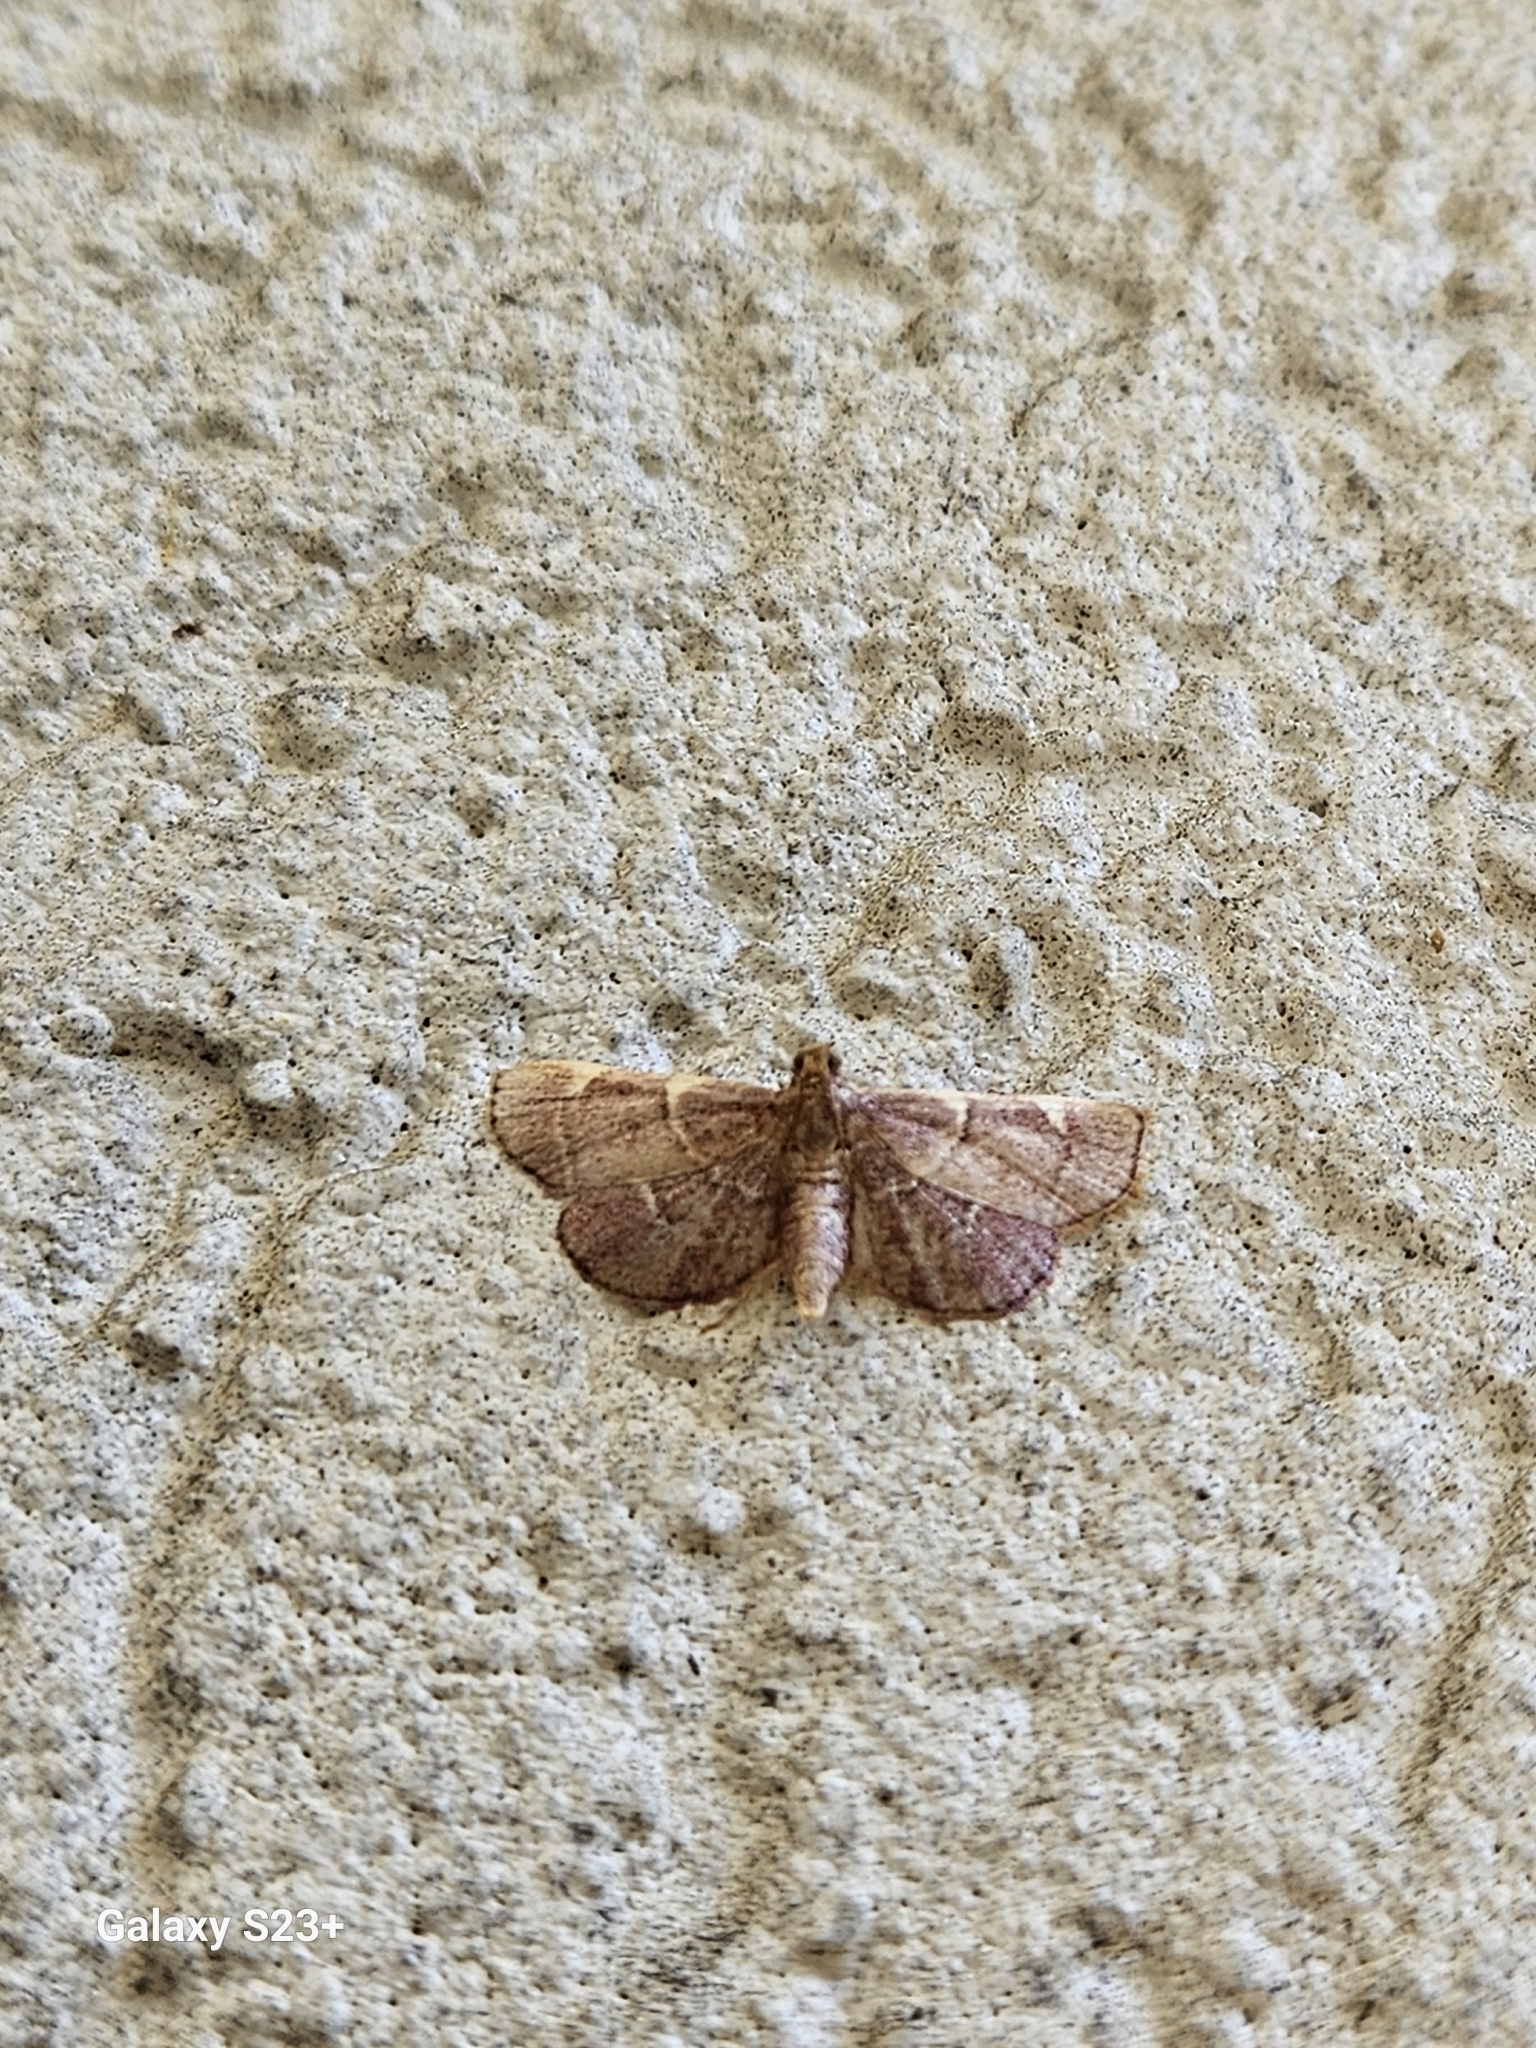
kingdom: Animalia
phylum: Arthropoda
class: Insecta
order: Lepidoptera
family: Pyralidae
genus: Hypsopygia
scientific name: Hypsopygia olinalis
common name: Yellow-fringed dolichomia moth
